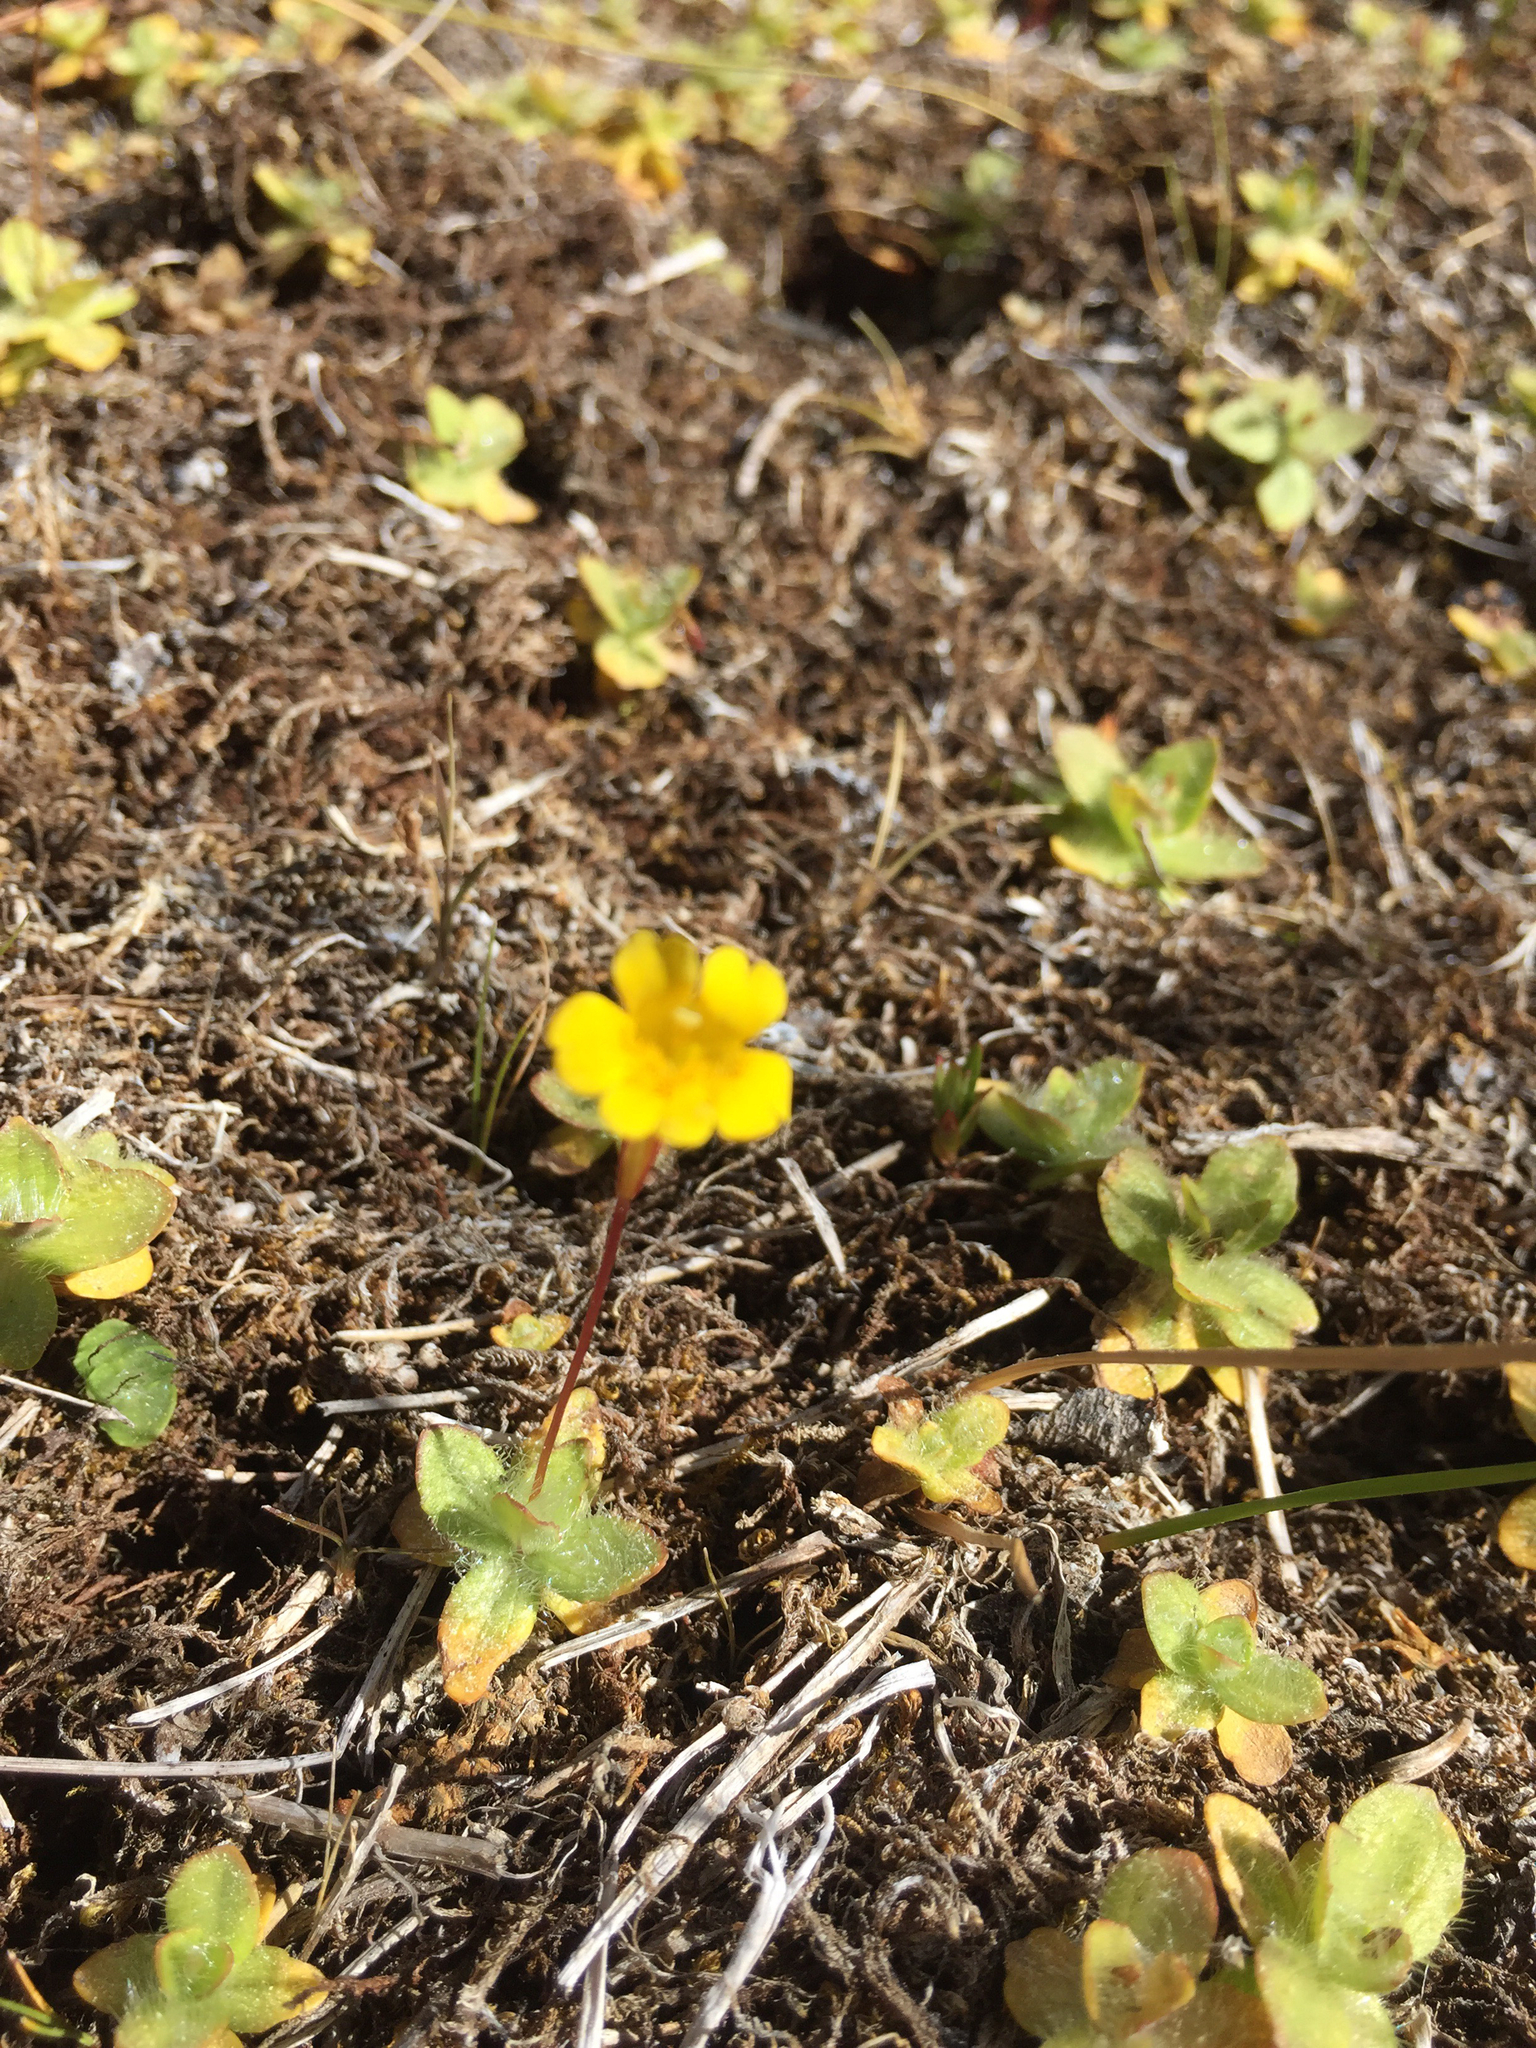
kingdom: Plantae
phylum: Tracheophyta
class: Magnoliopsida
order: Lamiales
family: Phrymaceae
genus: Erythranthe
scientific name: Erythranthe primuloides
